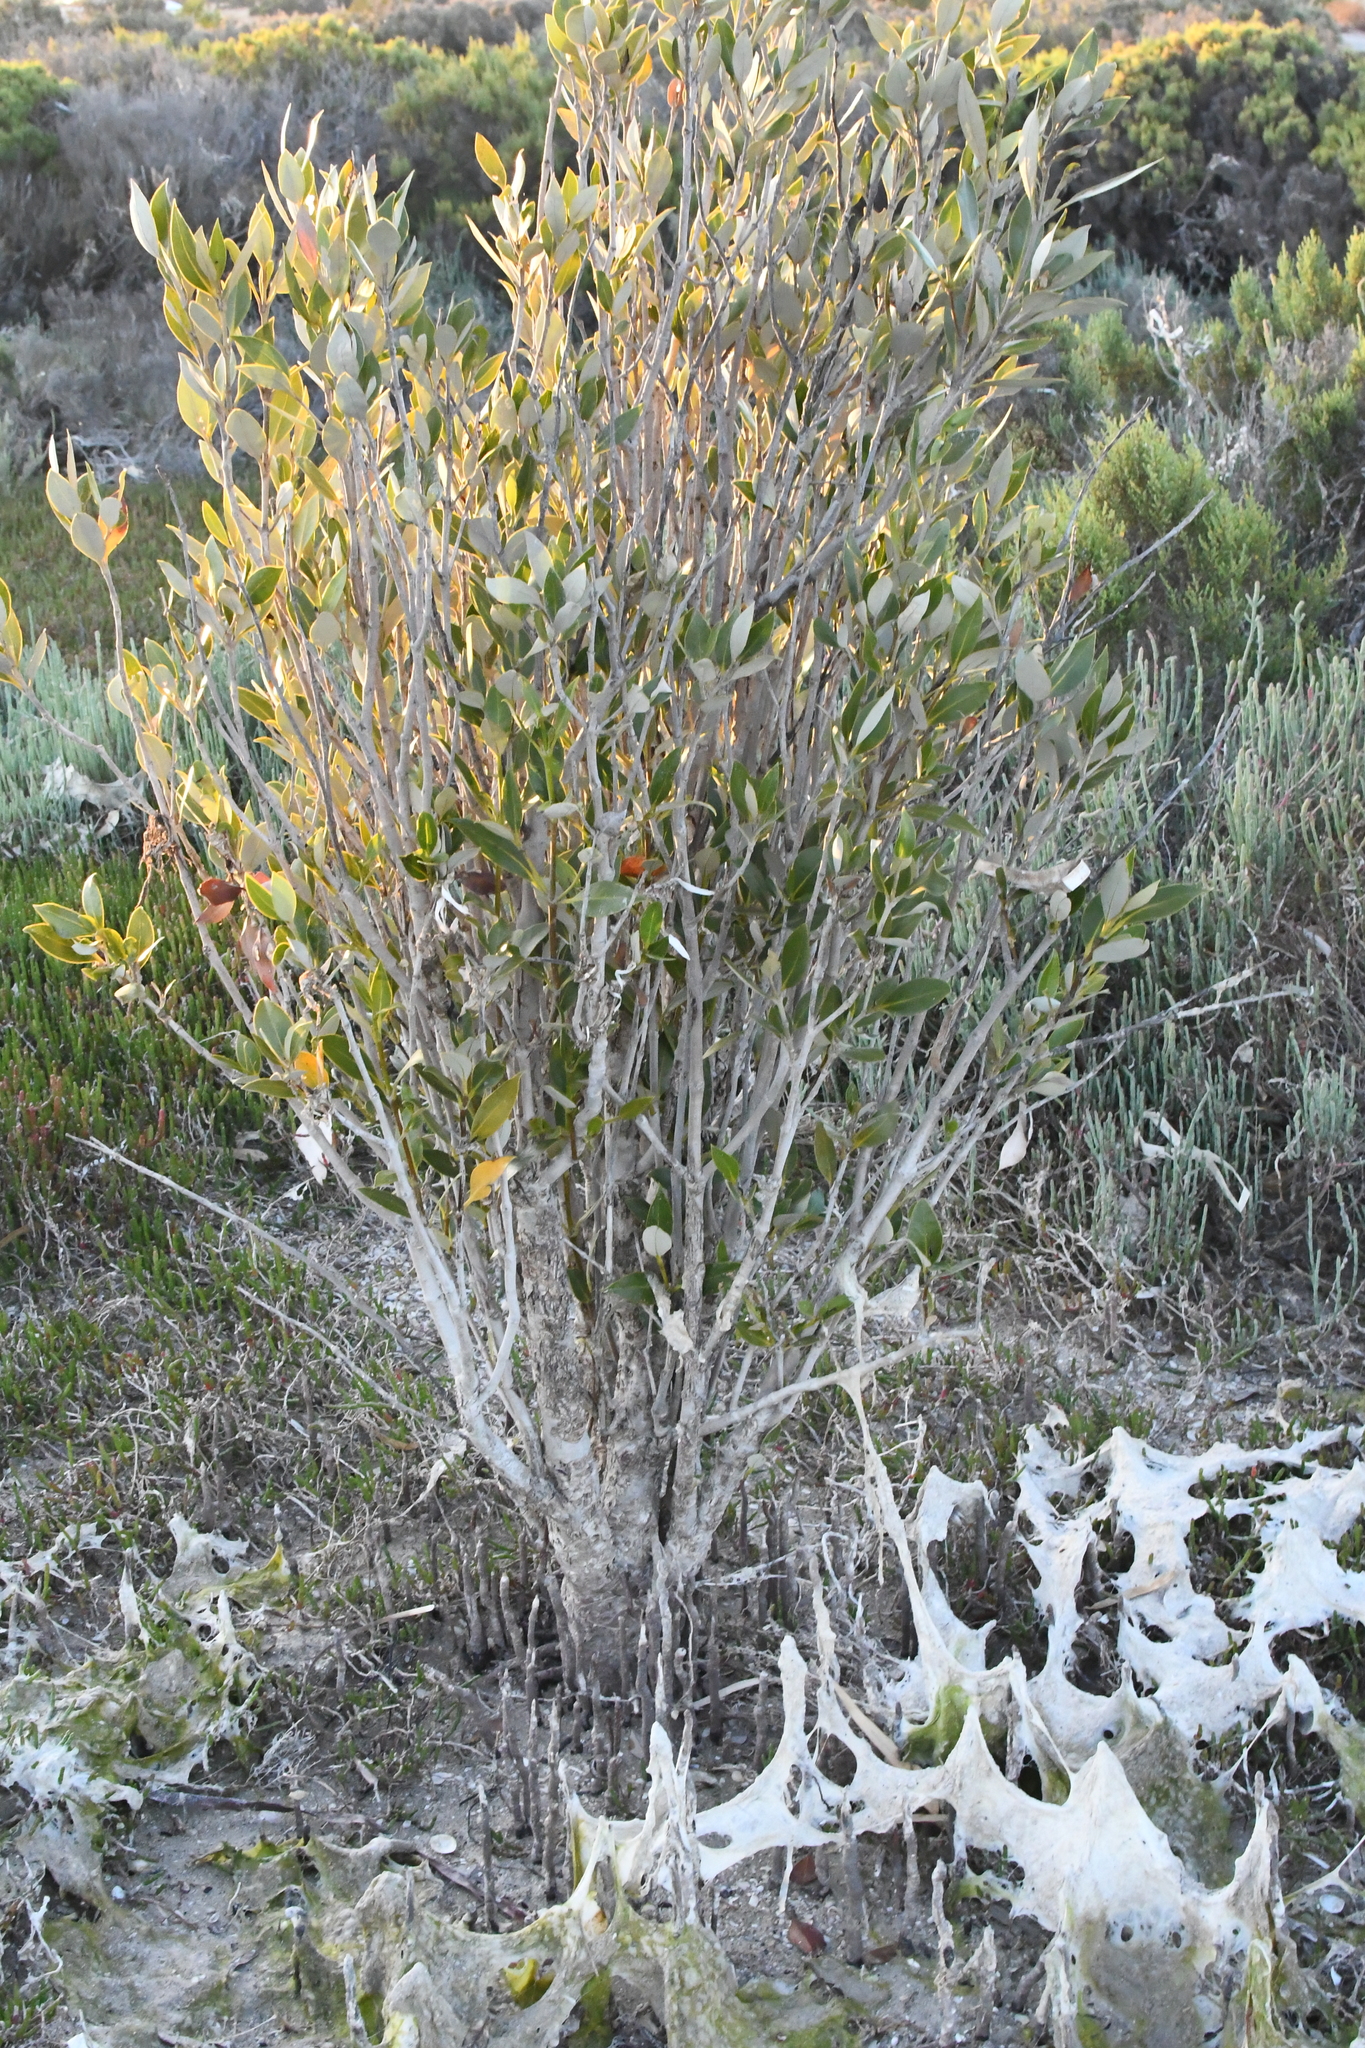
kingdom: Plantae
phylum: Tracheophyta
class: Magnoliopsida
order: Lamiales
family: Acanthaceae
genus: Avicennia
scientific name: Avicennia marina
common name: Gray mangrove
